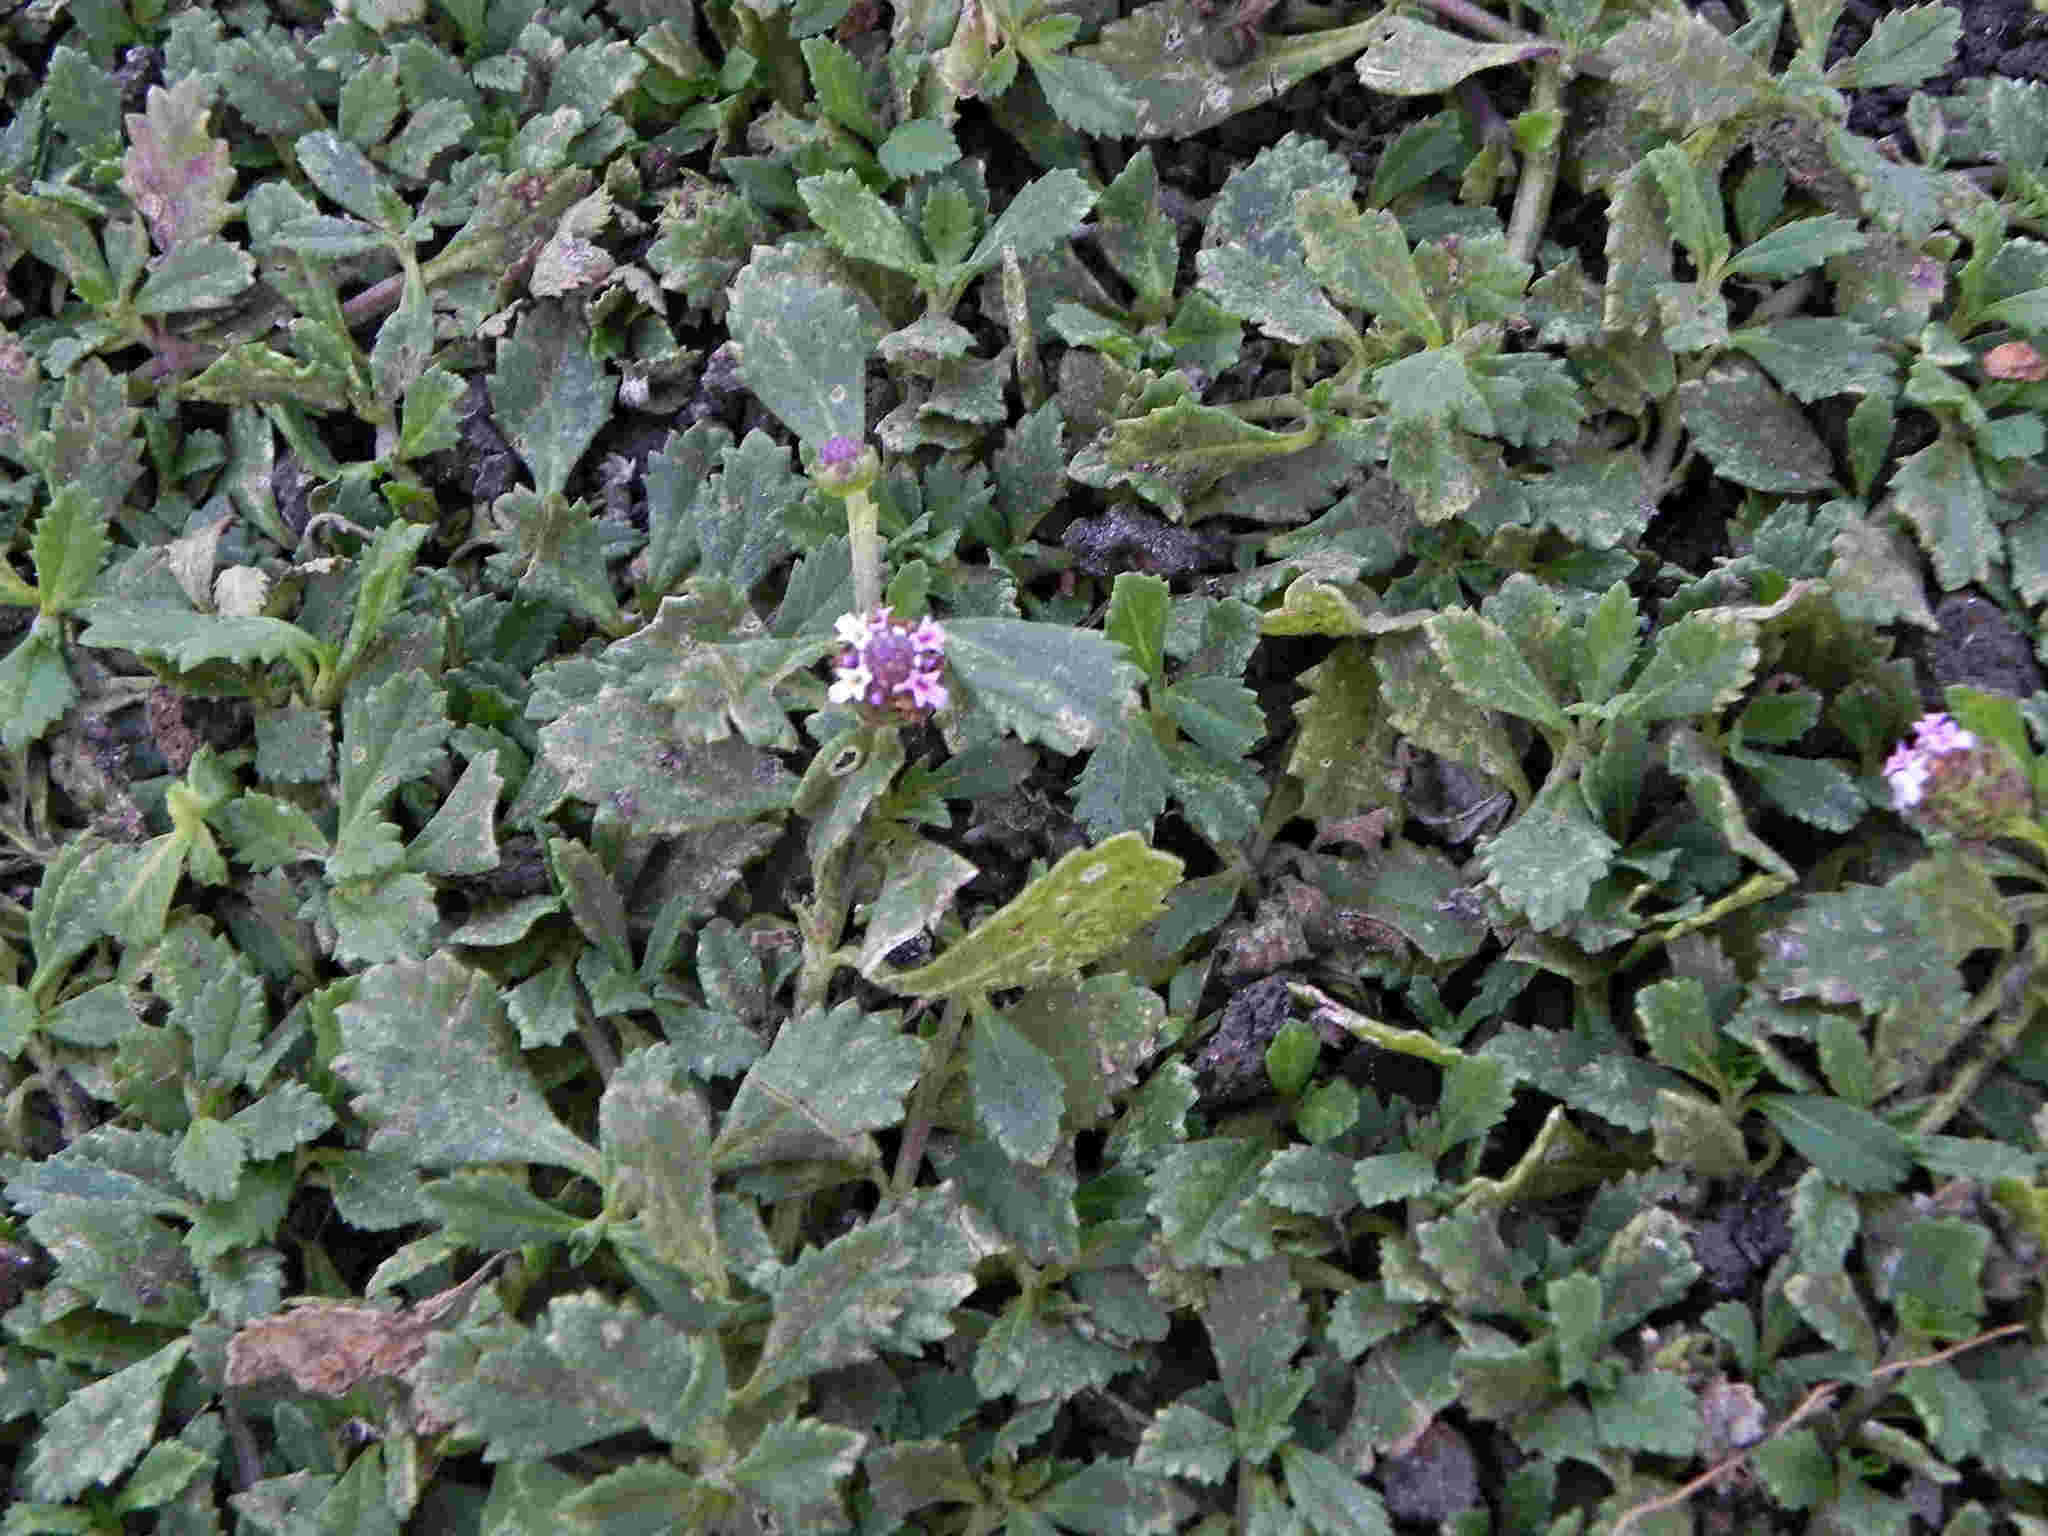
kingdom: Plantae
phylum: Tracheophyta
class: Magnoliopsida
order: Lamiales
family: Verbenaceae
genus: Phyla
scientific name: Phyla nodiflora
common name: Frogfruit
